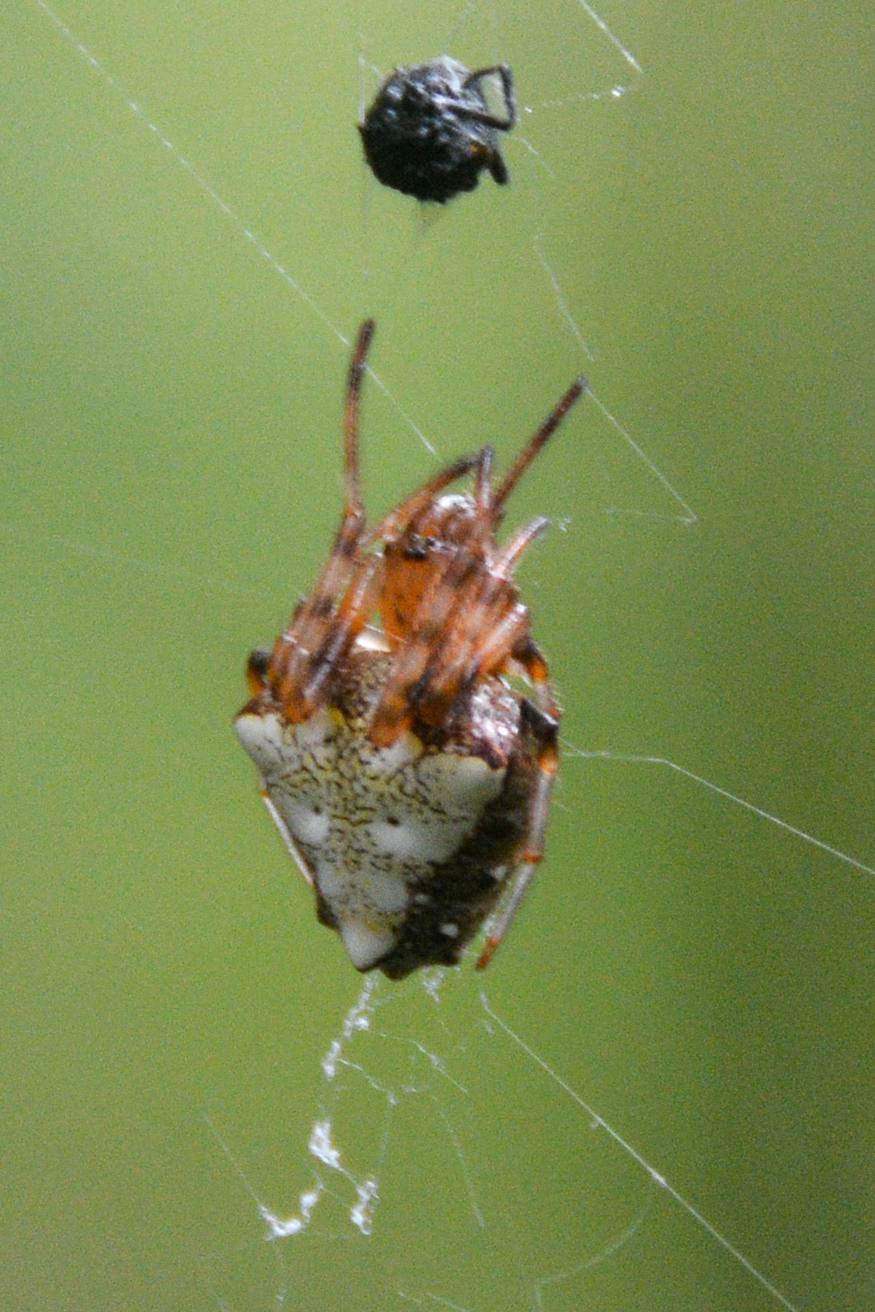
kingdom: Animalia
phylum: Arthropoda
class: Arachnida
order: Araneae
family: Araneidae
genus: Verrucosa
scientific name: Verrucosa arenata
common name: Orb weavers
